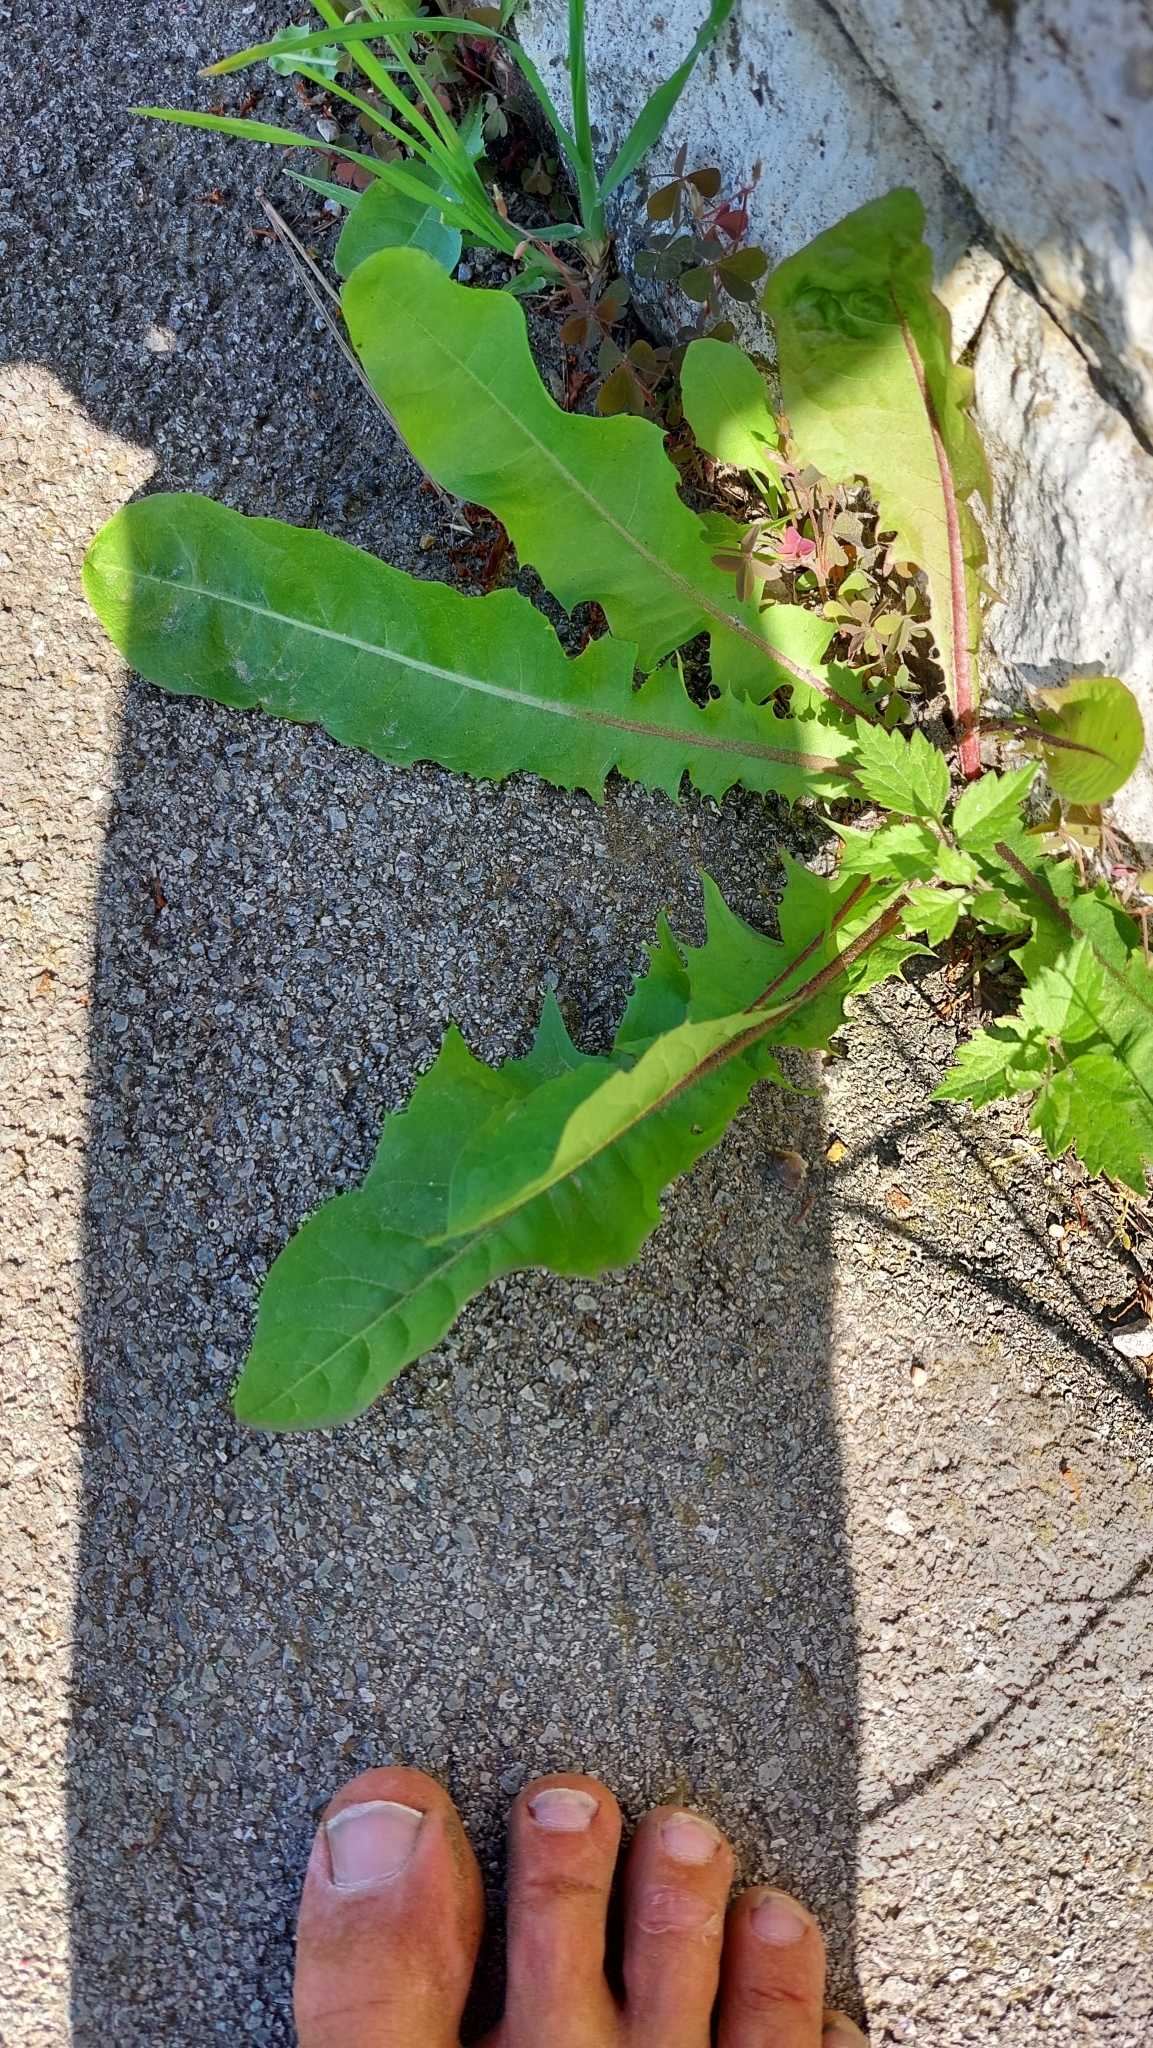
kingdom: Plantae
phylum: Tracheophyta
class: Magnoliopsida
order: Asterales
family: Asteraceae
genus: Taraxacum
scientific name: Taraxacum
